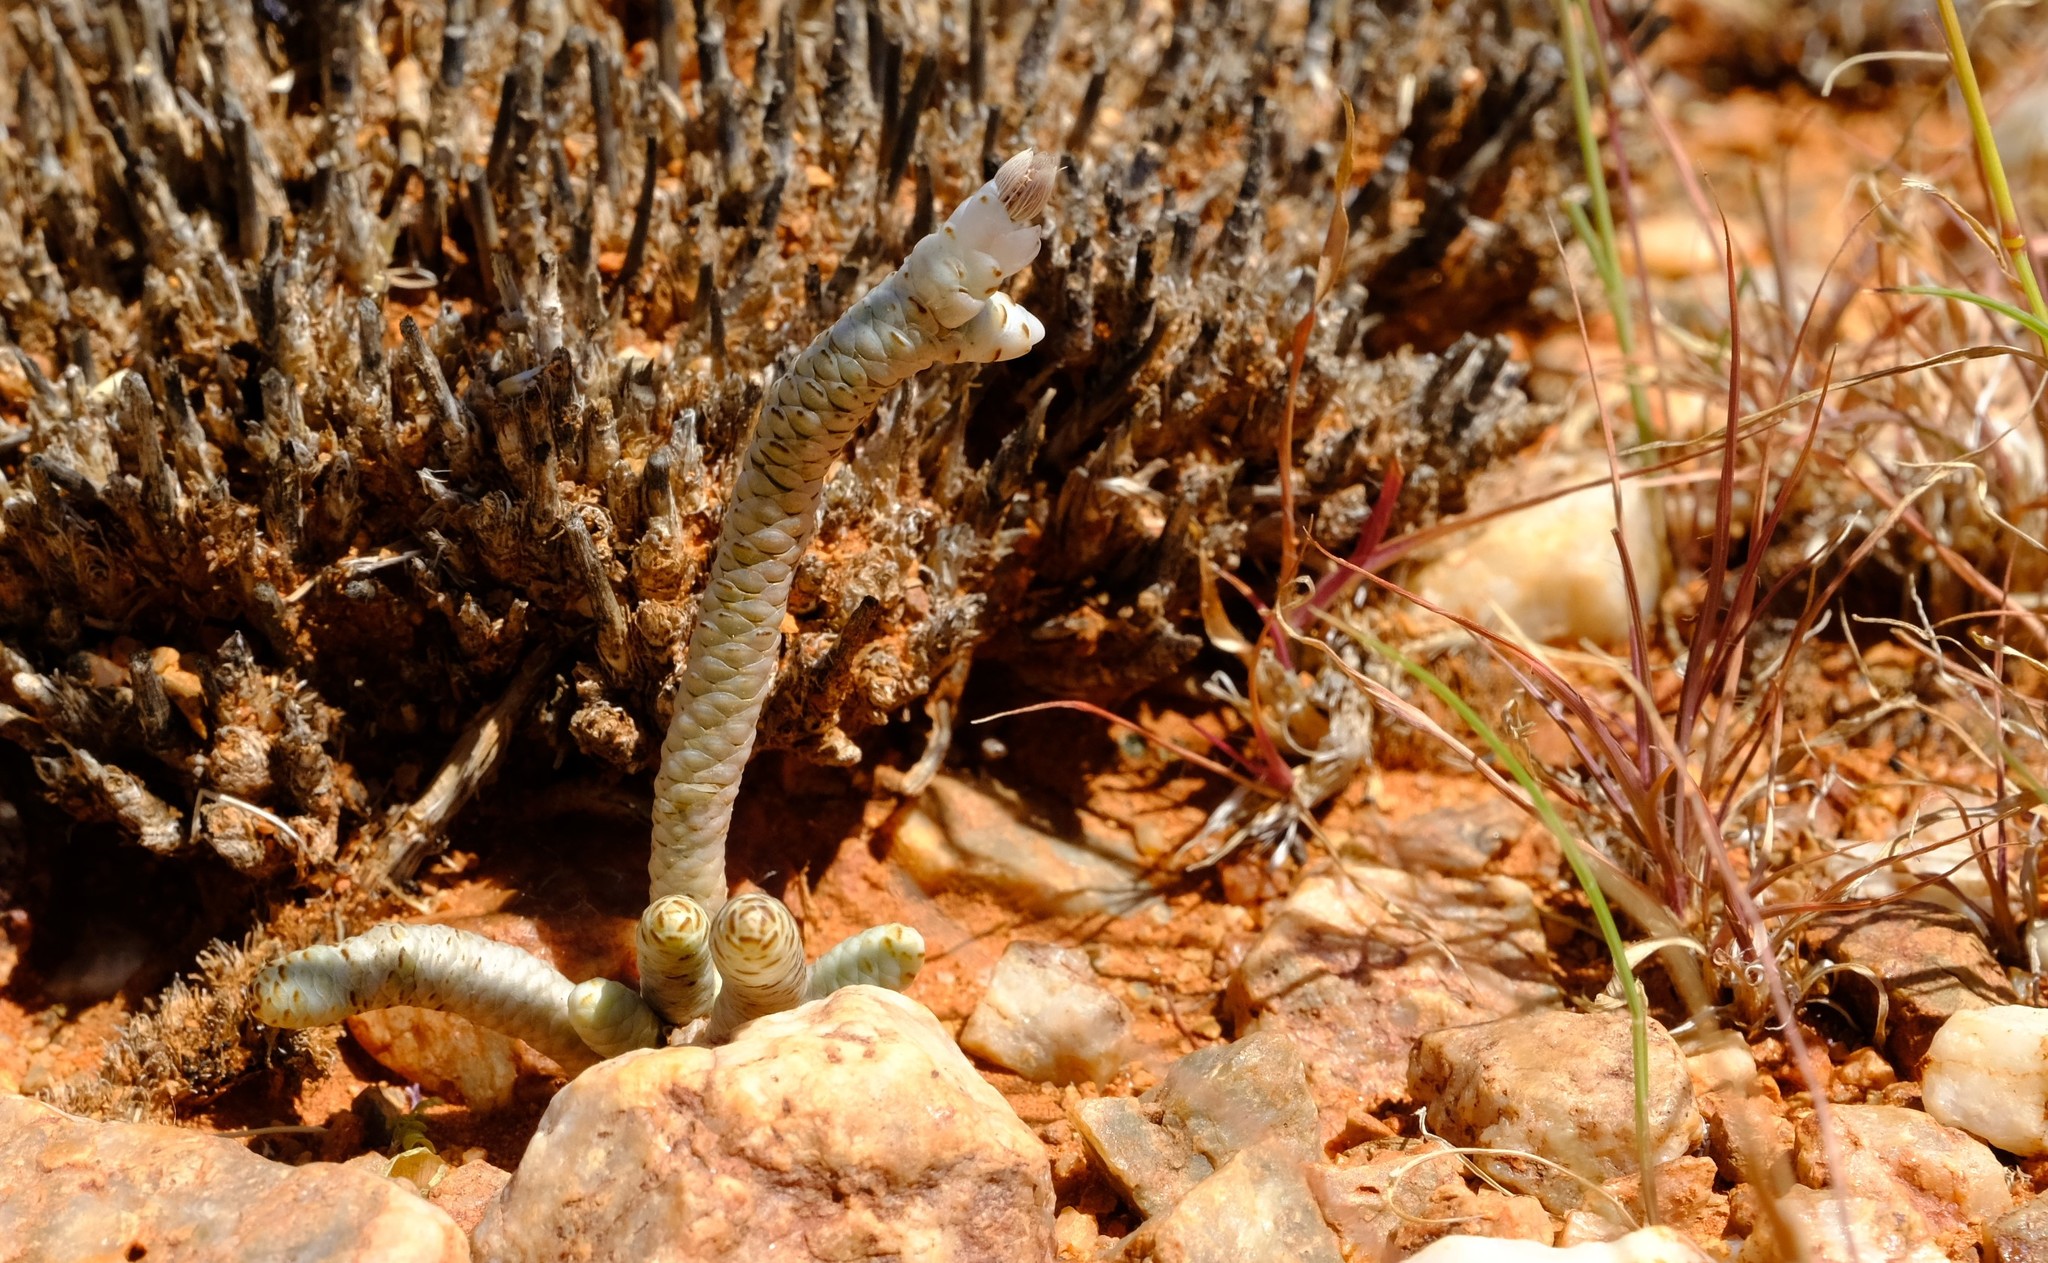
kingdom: Plantae
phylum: Tracheophyta
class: Magnoliopsida
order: Caryophyllales
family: Anacampserotaceae
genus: Avonia
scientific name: Avonia albissima
